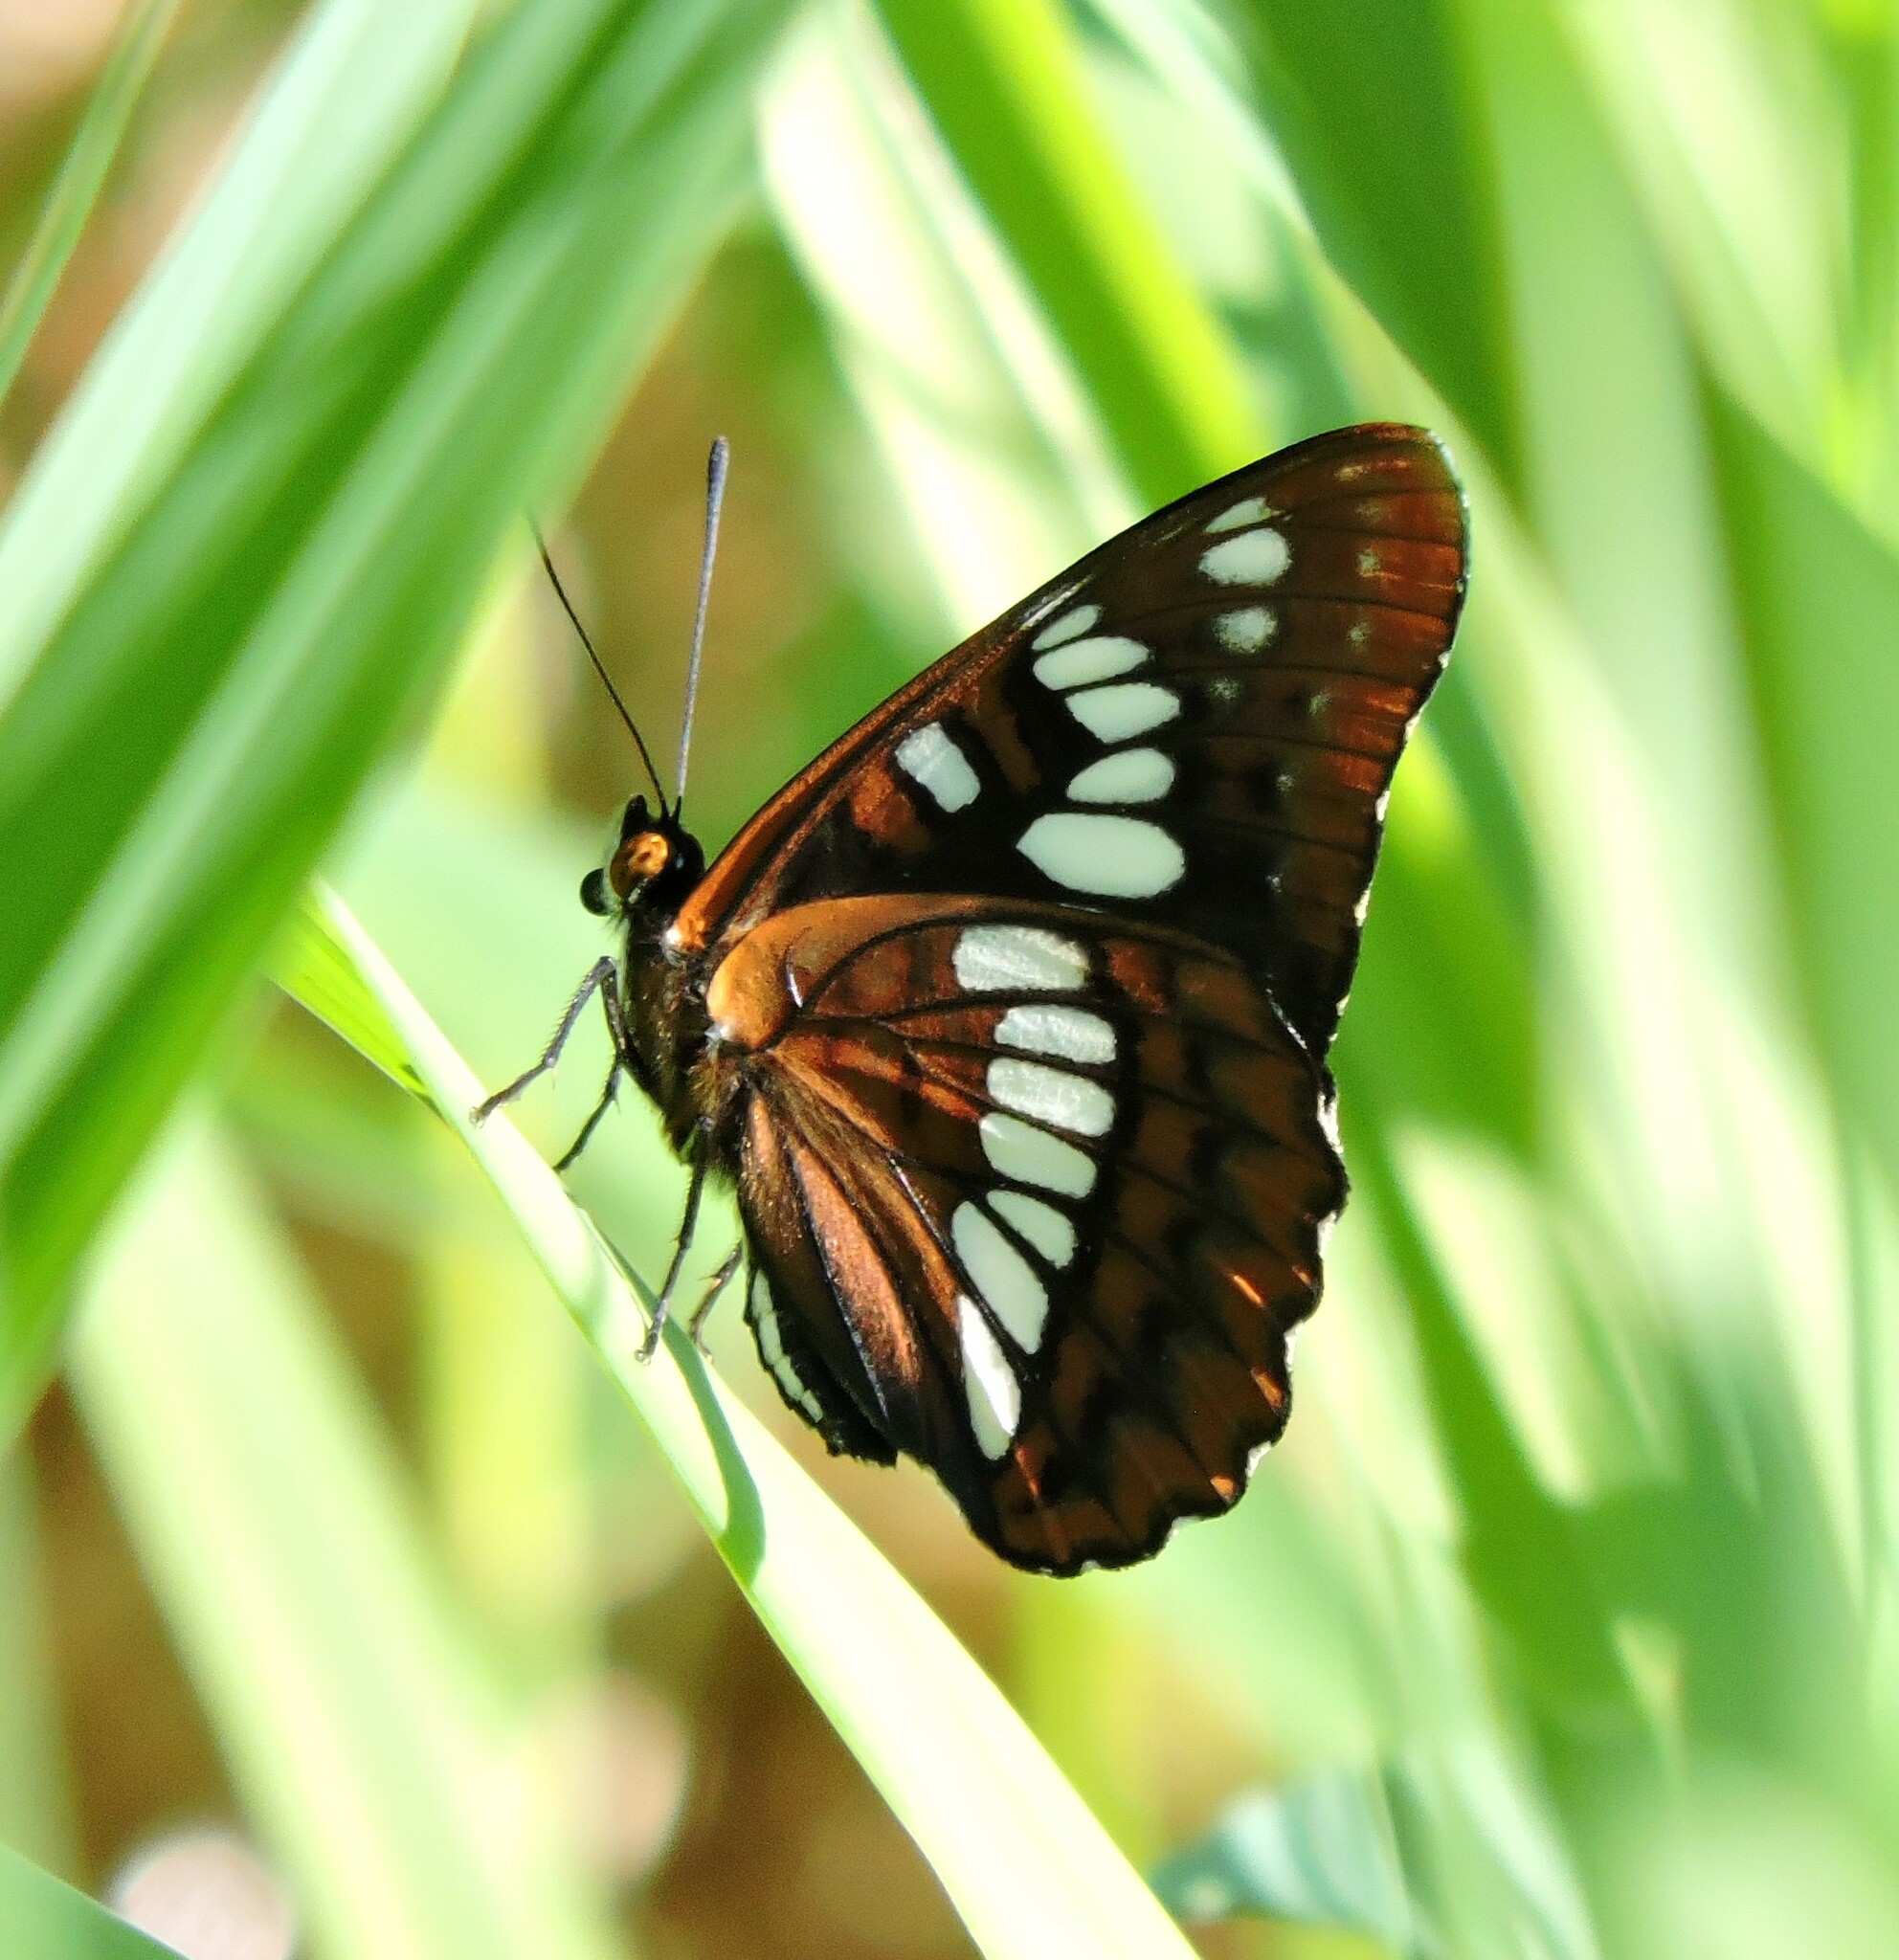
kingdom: Animalia
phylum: Arthropoda
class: Insecta
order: Lepidoptera
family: Nymphalidae
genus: Limenitis
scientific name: Limenitis lorquini
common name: Lorquin's admiral
